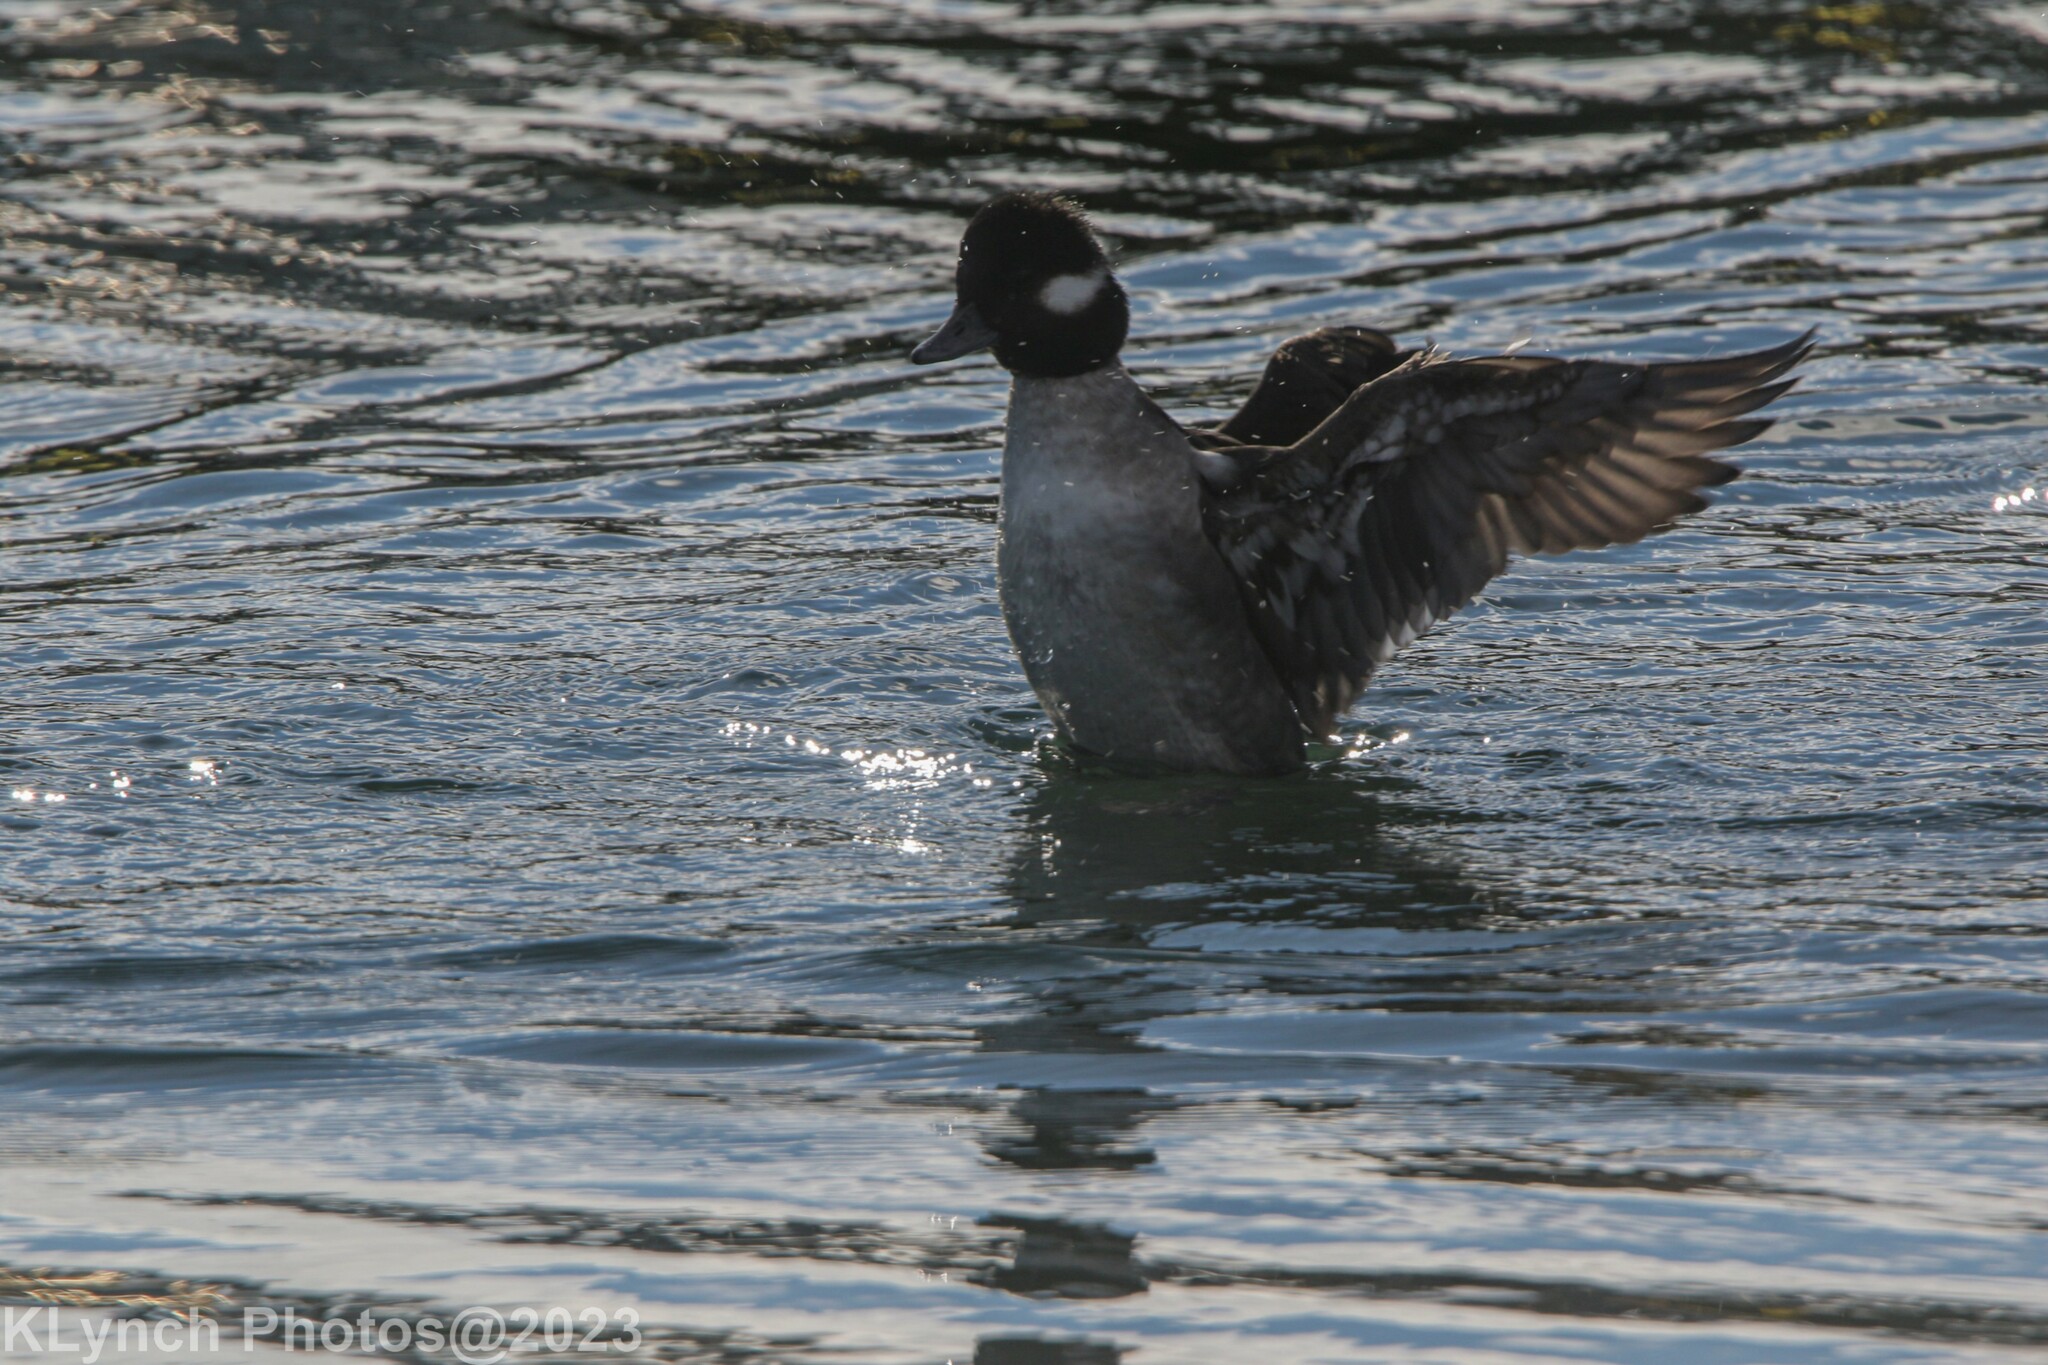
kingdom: Animalia
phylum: Chordata
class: Aves
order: Anseriformes
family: Anatidae
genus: Bucephala
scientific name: Bucephala albeola
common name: Bufflehead
